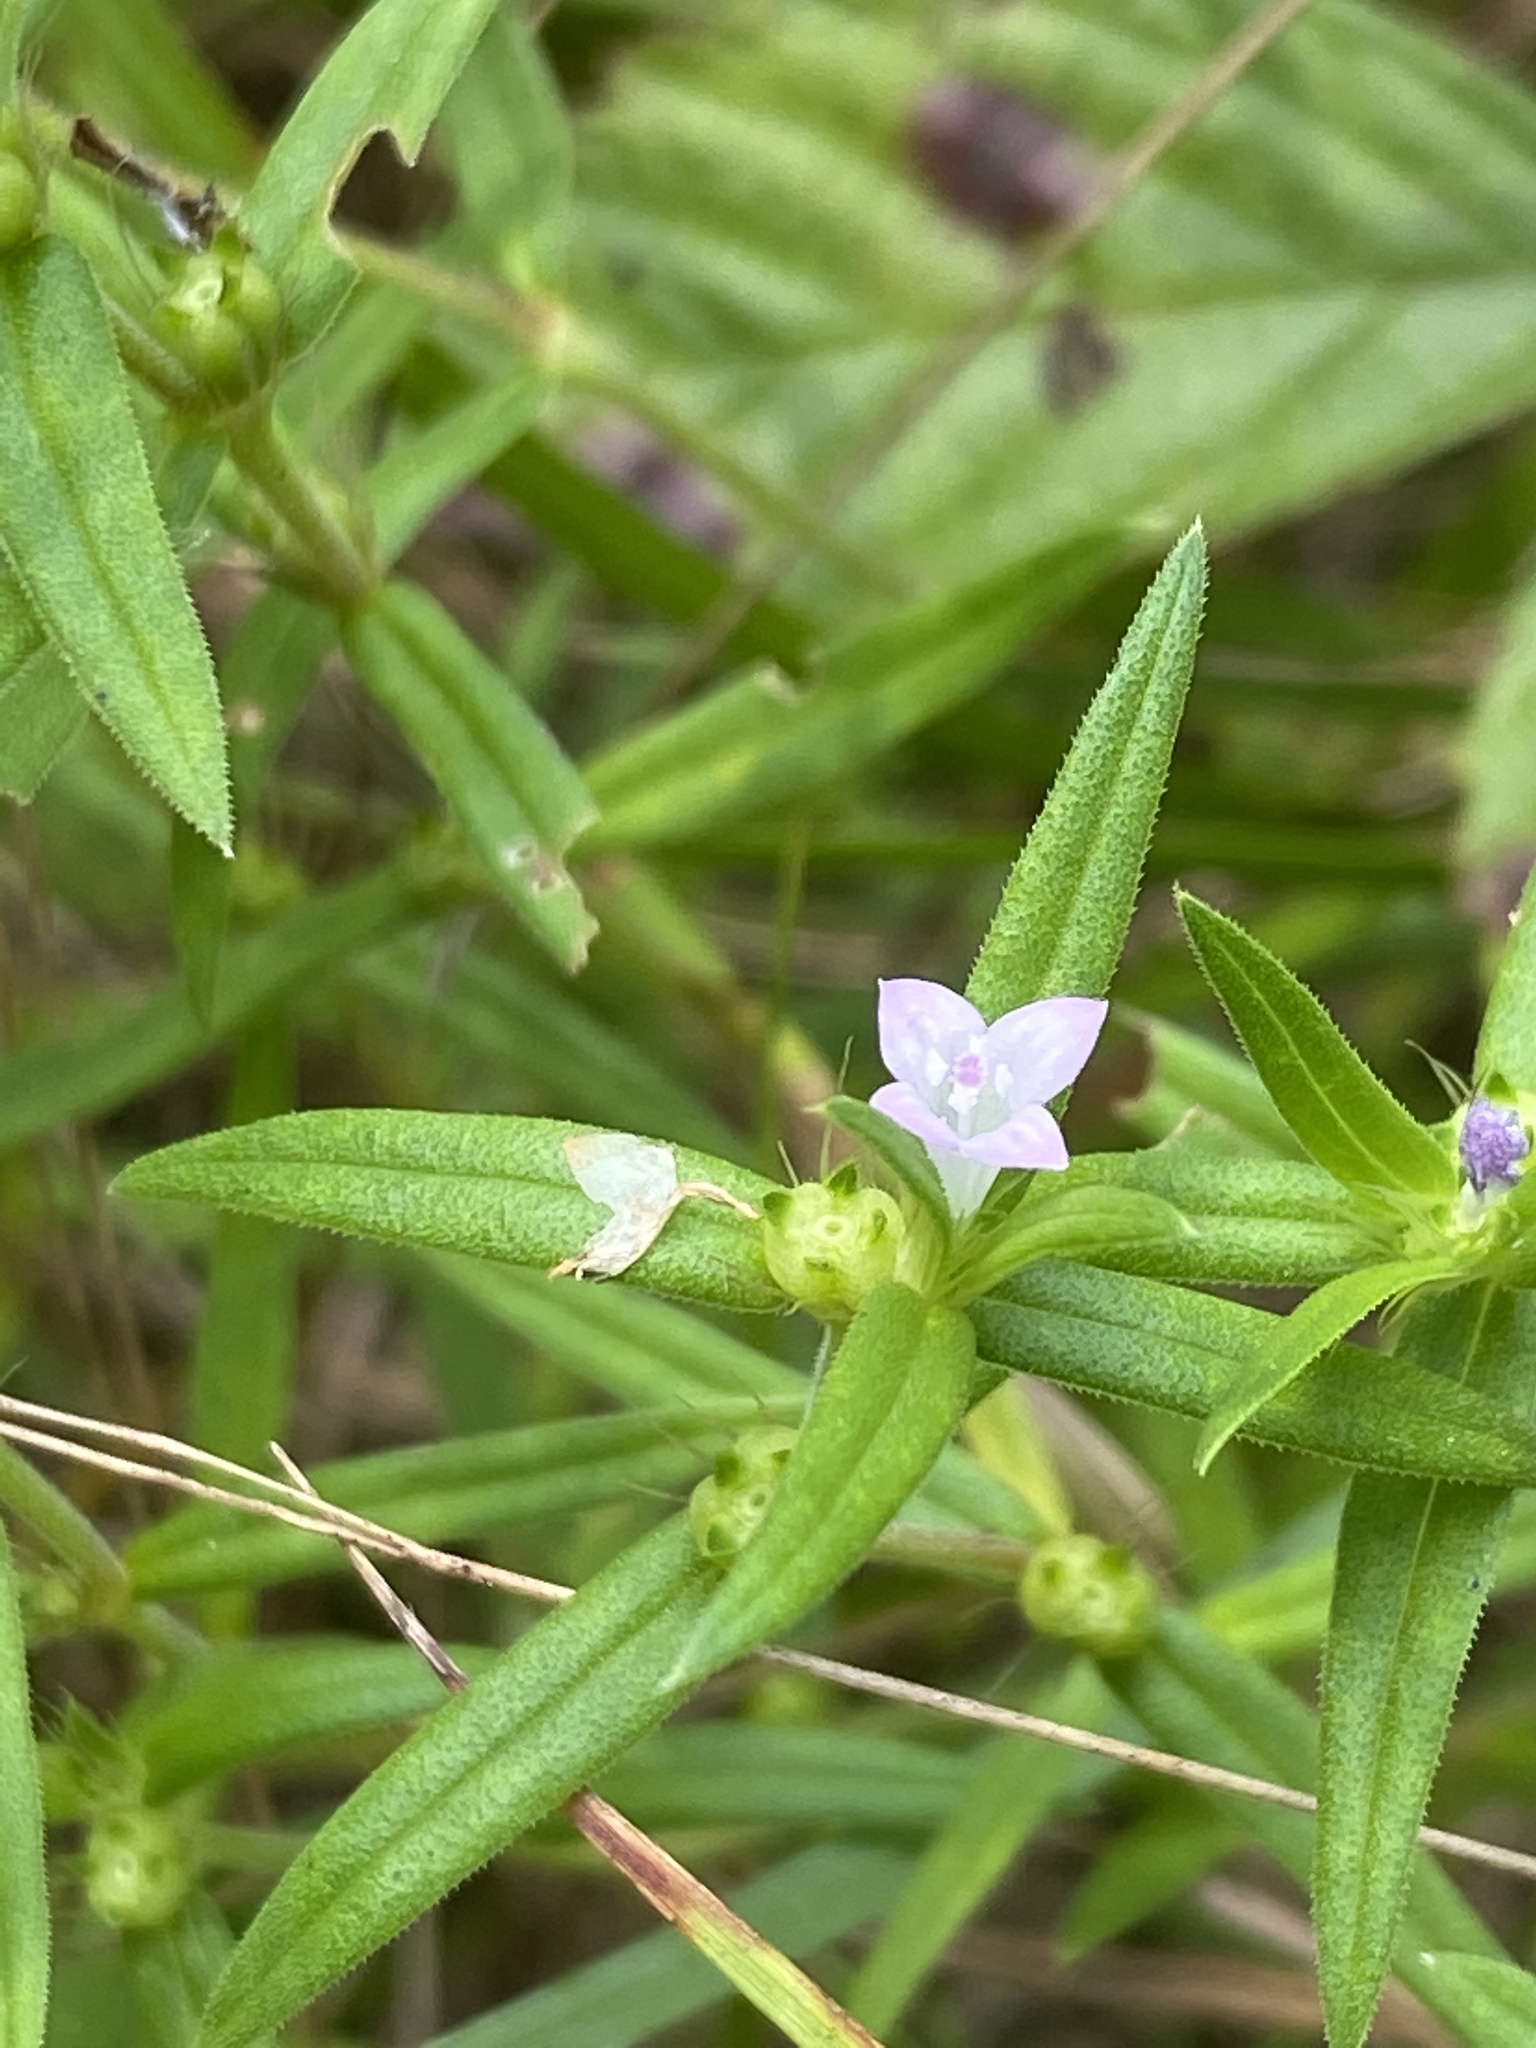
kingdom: Plantae
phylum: Tracheophyta
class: Magnoliopsida
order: Gentianales
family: Rubiaceae
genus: Hexasepalum
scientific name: Hexasepalum teres
